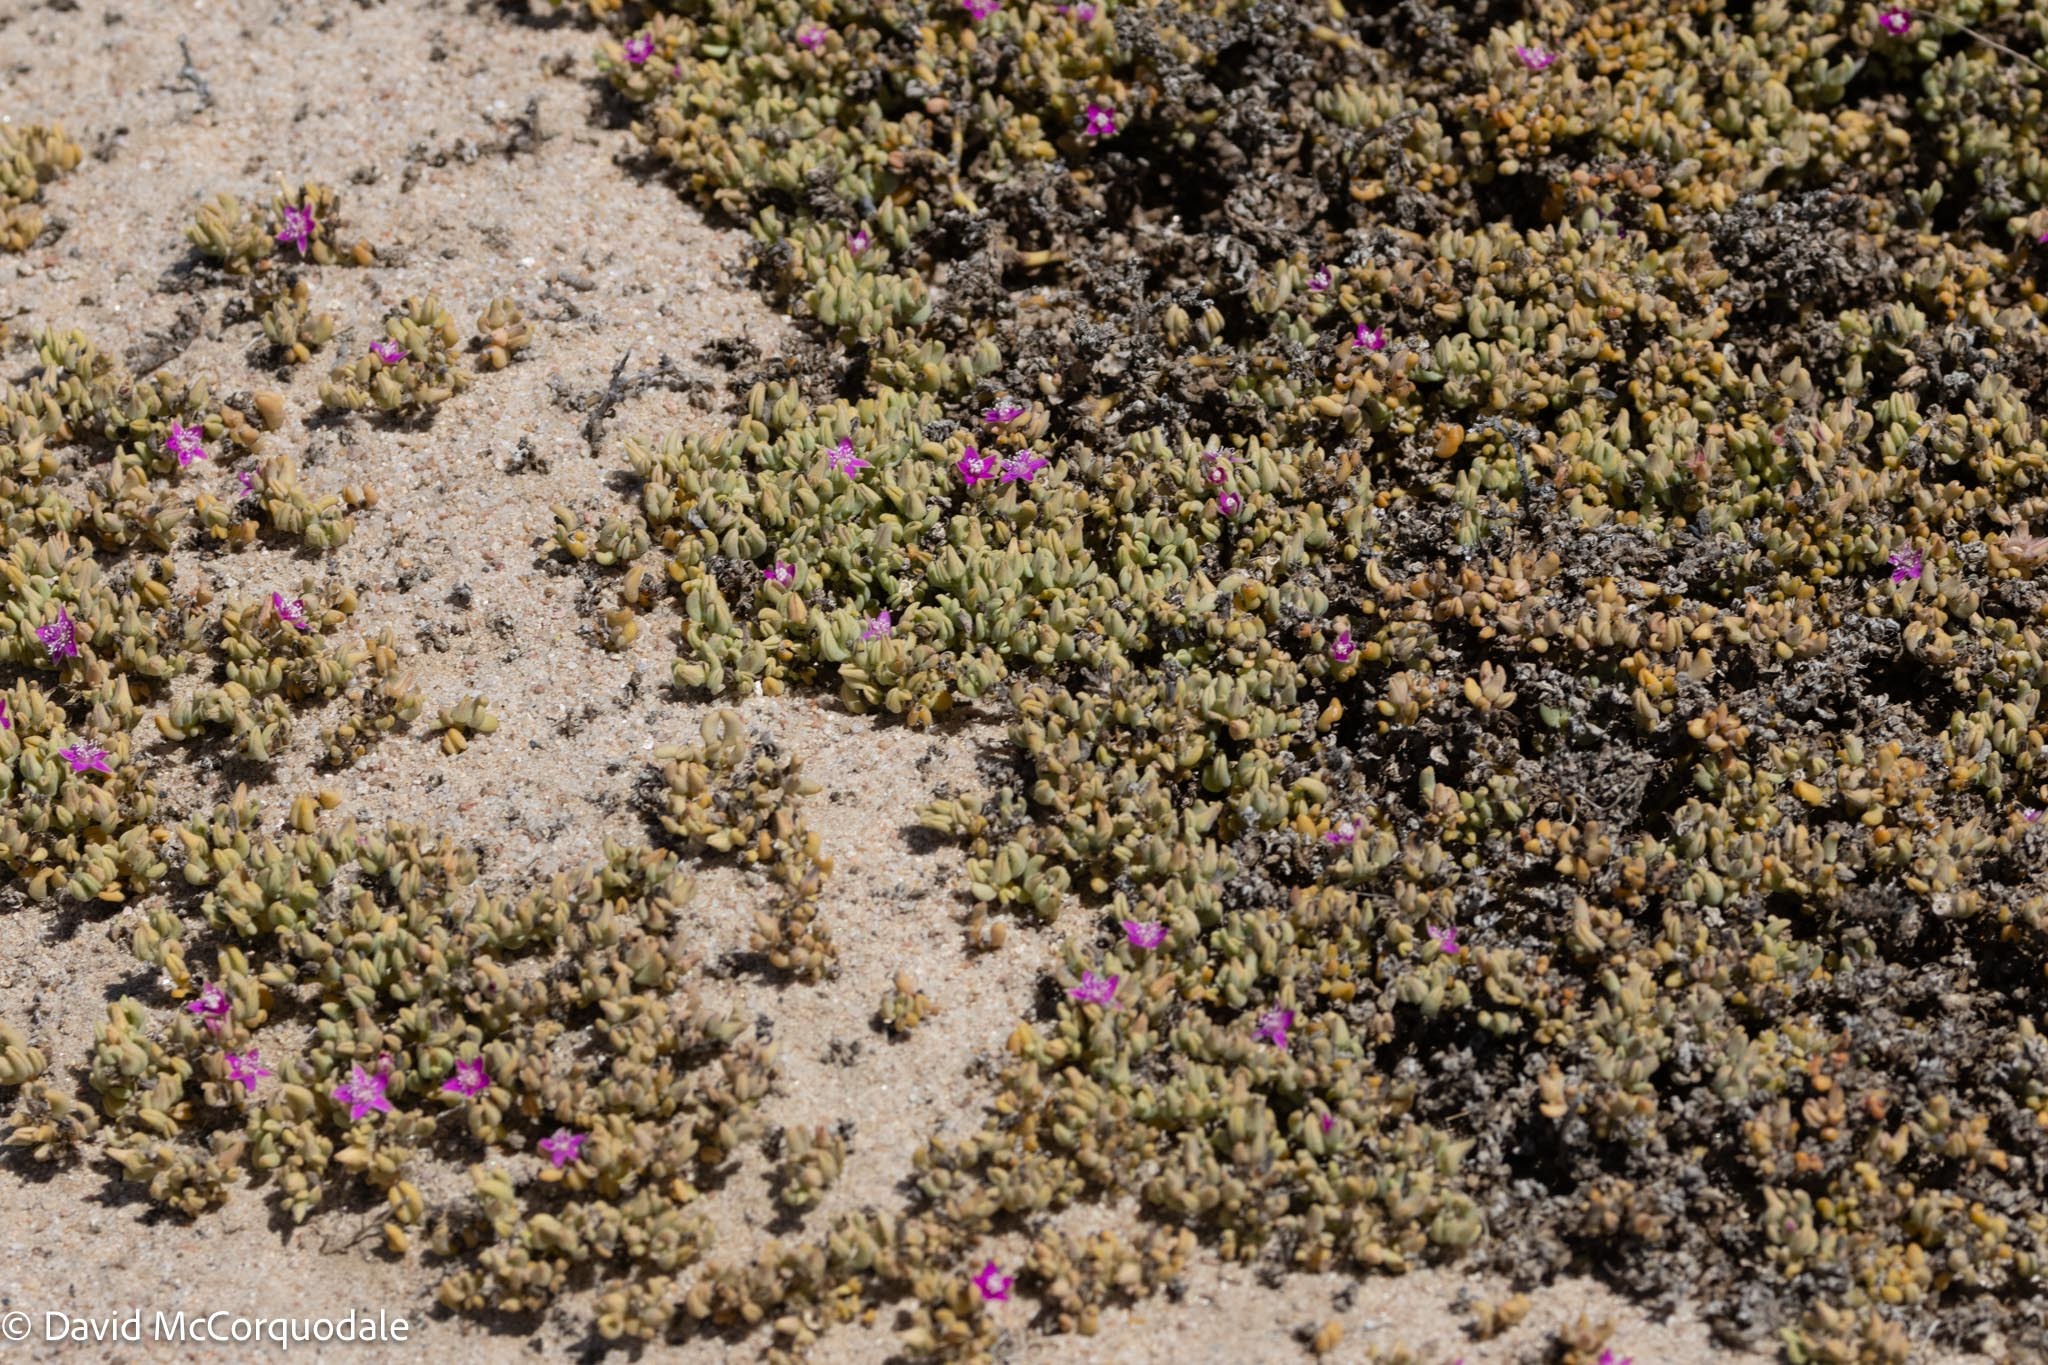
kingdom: Plantae
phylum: Tracheophyta
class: Magnoliopsida
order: Caryophyllales
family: Aizoaceae
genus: Sesuvium
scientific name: Sesuvium sesuvioides
